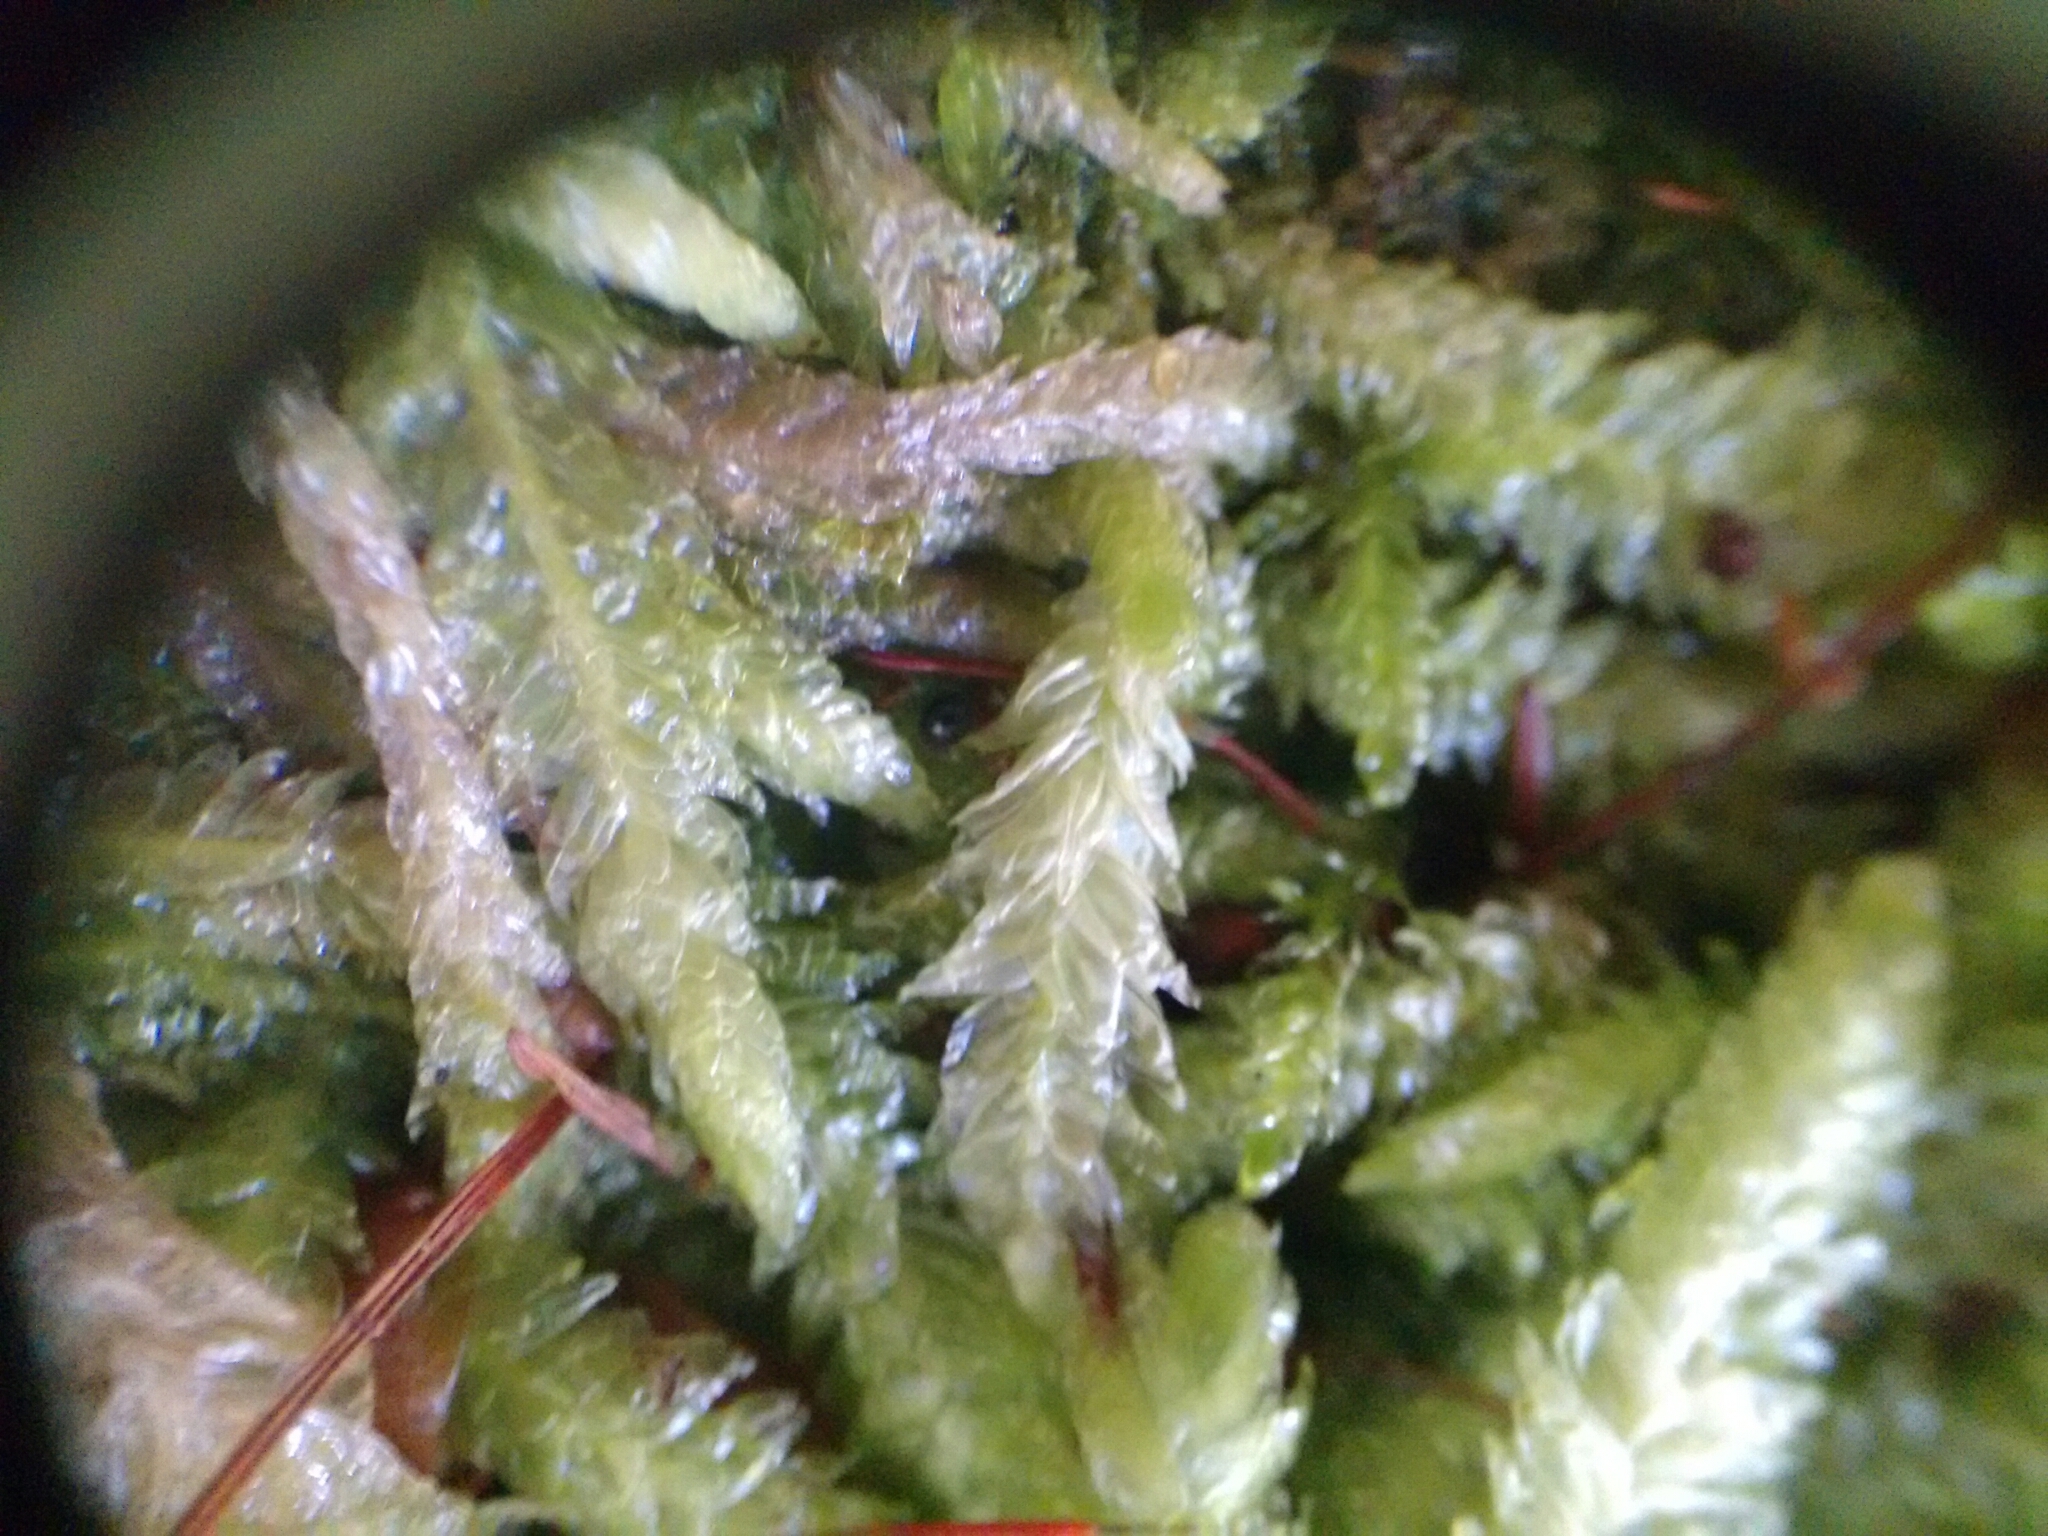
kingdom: Plantae
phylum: Bryophyta
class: Bryopsida
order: Hypnales
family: Plagiotheciaceae
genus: Plagiothecium
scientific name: Plagiothecium undulatum
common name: Waved silk-moss
